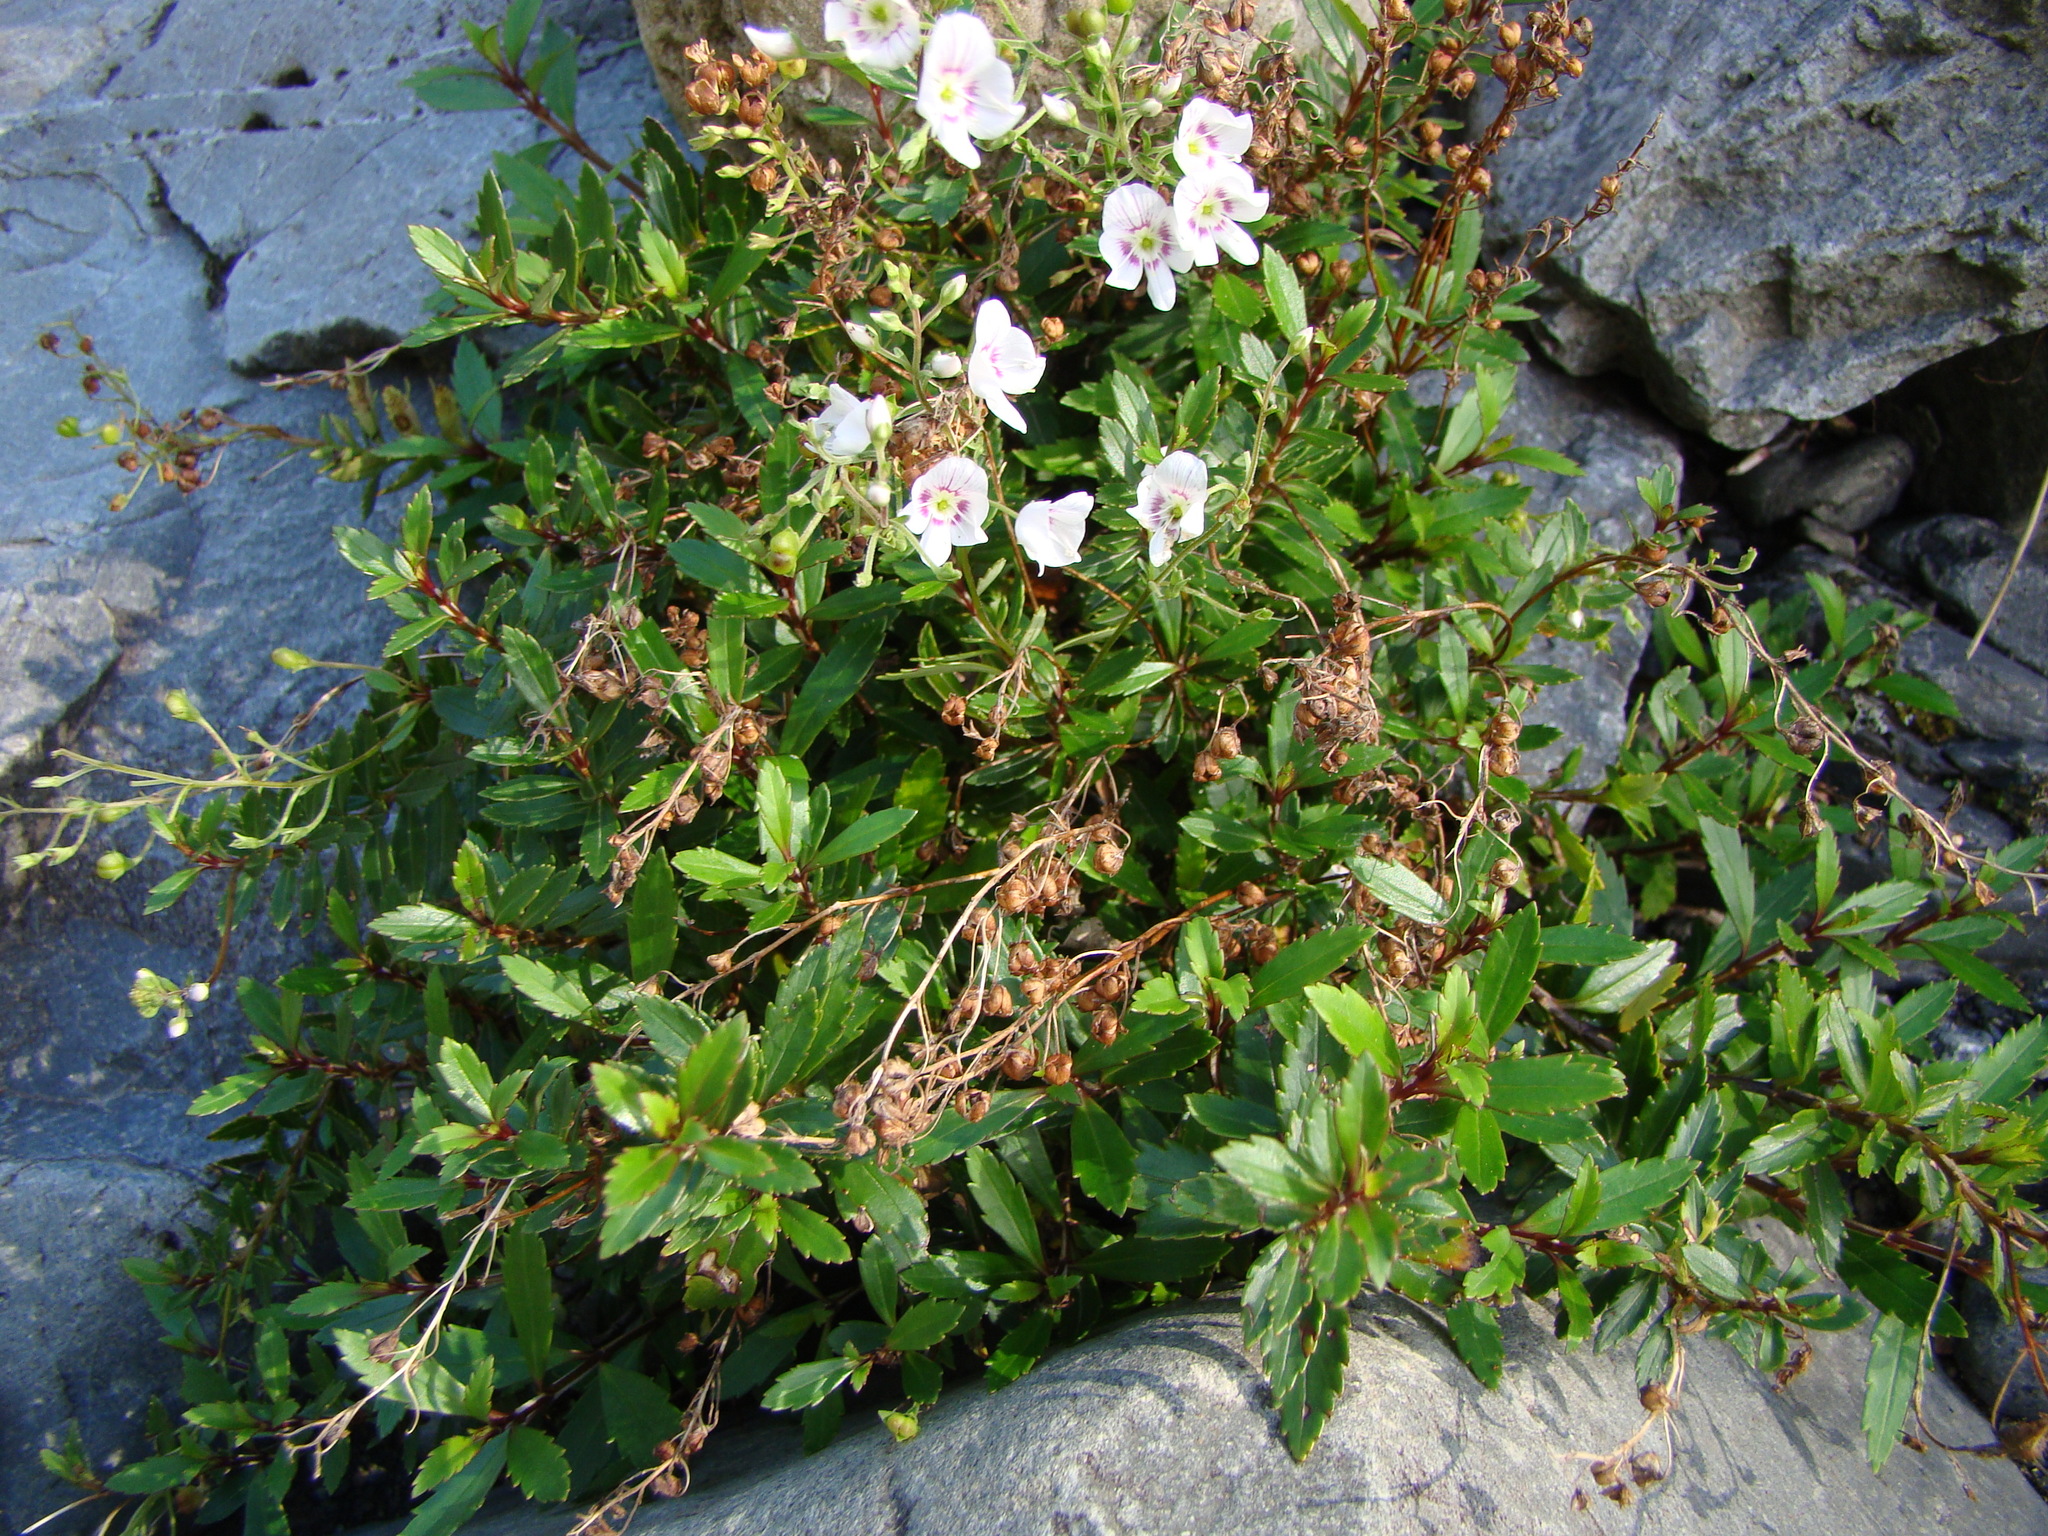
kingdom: Plantae
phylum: Tracheophyta
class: Magnoliopsida
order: Lamiales
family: Plantaginaceae
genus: Veronica
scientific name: Veronica lanceolata
